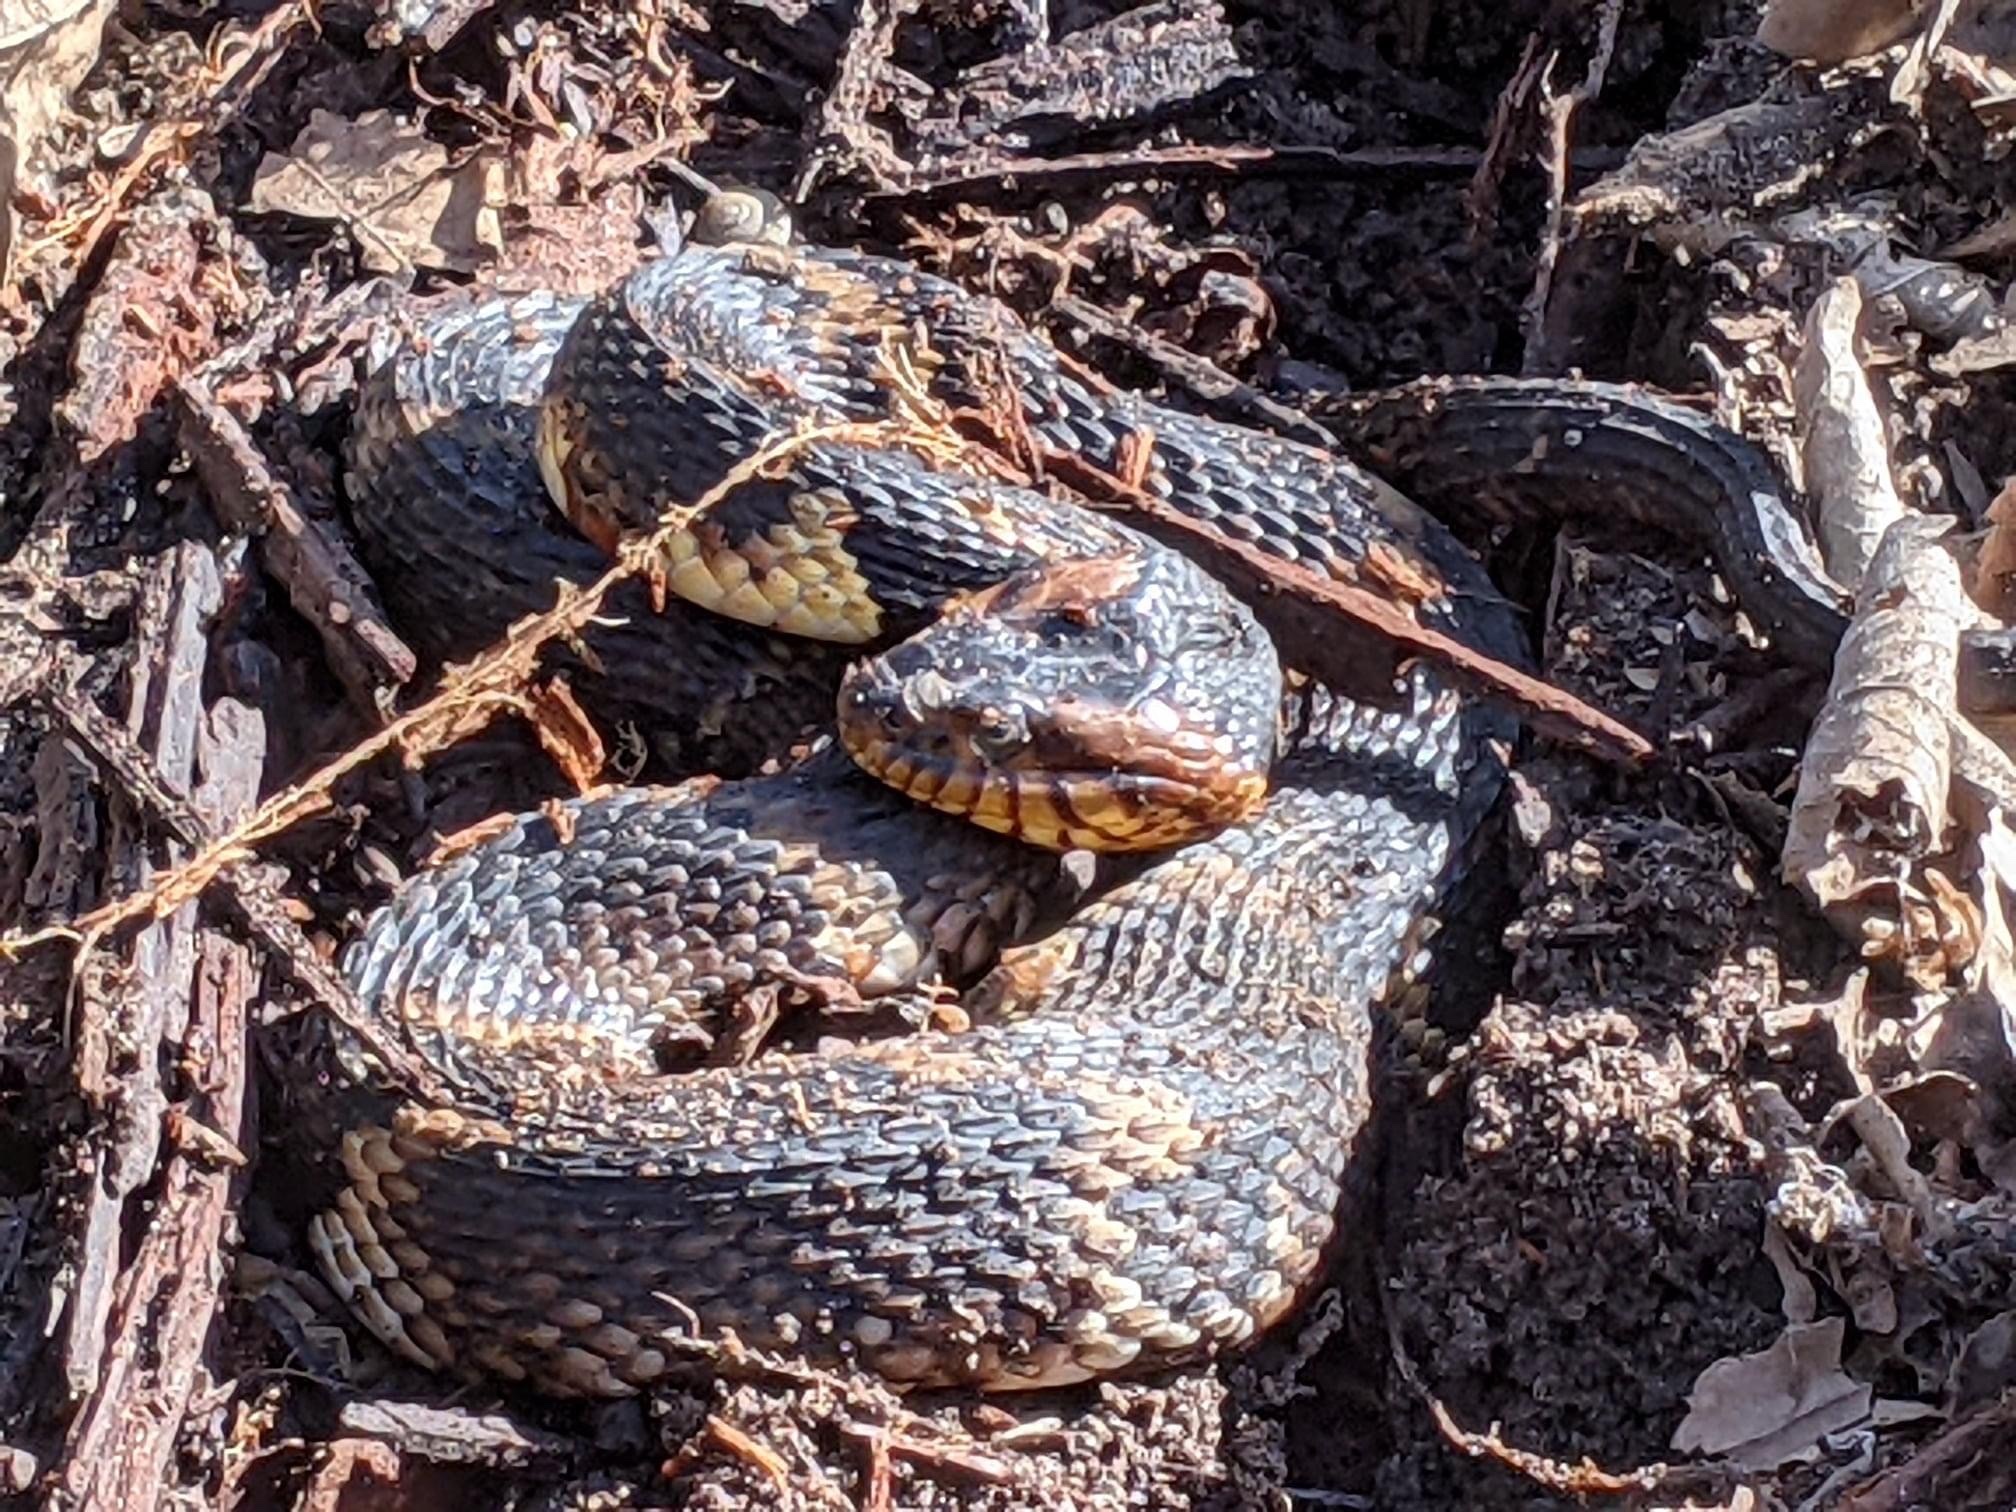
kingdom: Animalia
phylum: Chordata
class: Squamata
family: Colubridae
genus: Nerodia
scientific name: Nerodia fasciata
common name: Southern water snake
